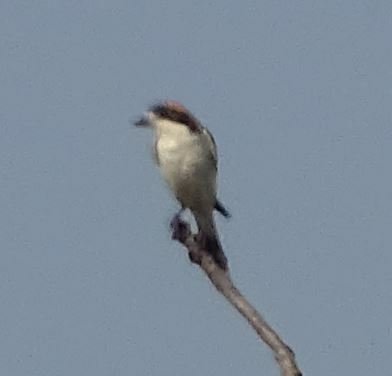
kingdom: Animalia
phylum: Chordata
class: Aves
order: Passeriformes
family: Laniidae
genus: Lanius
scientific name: Lanius senator
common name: Woodchat shrike
